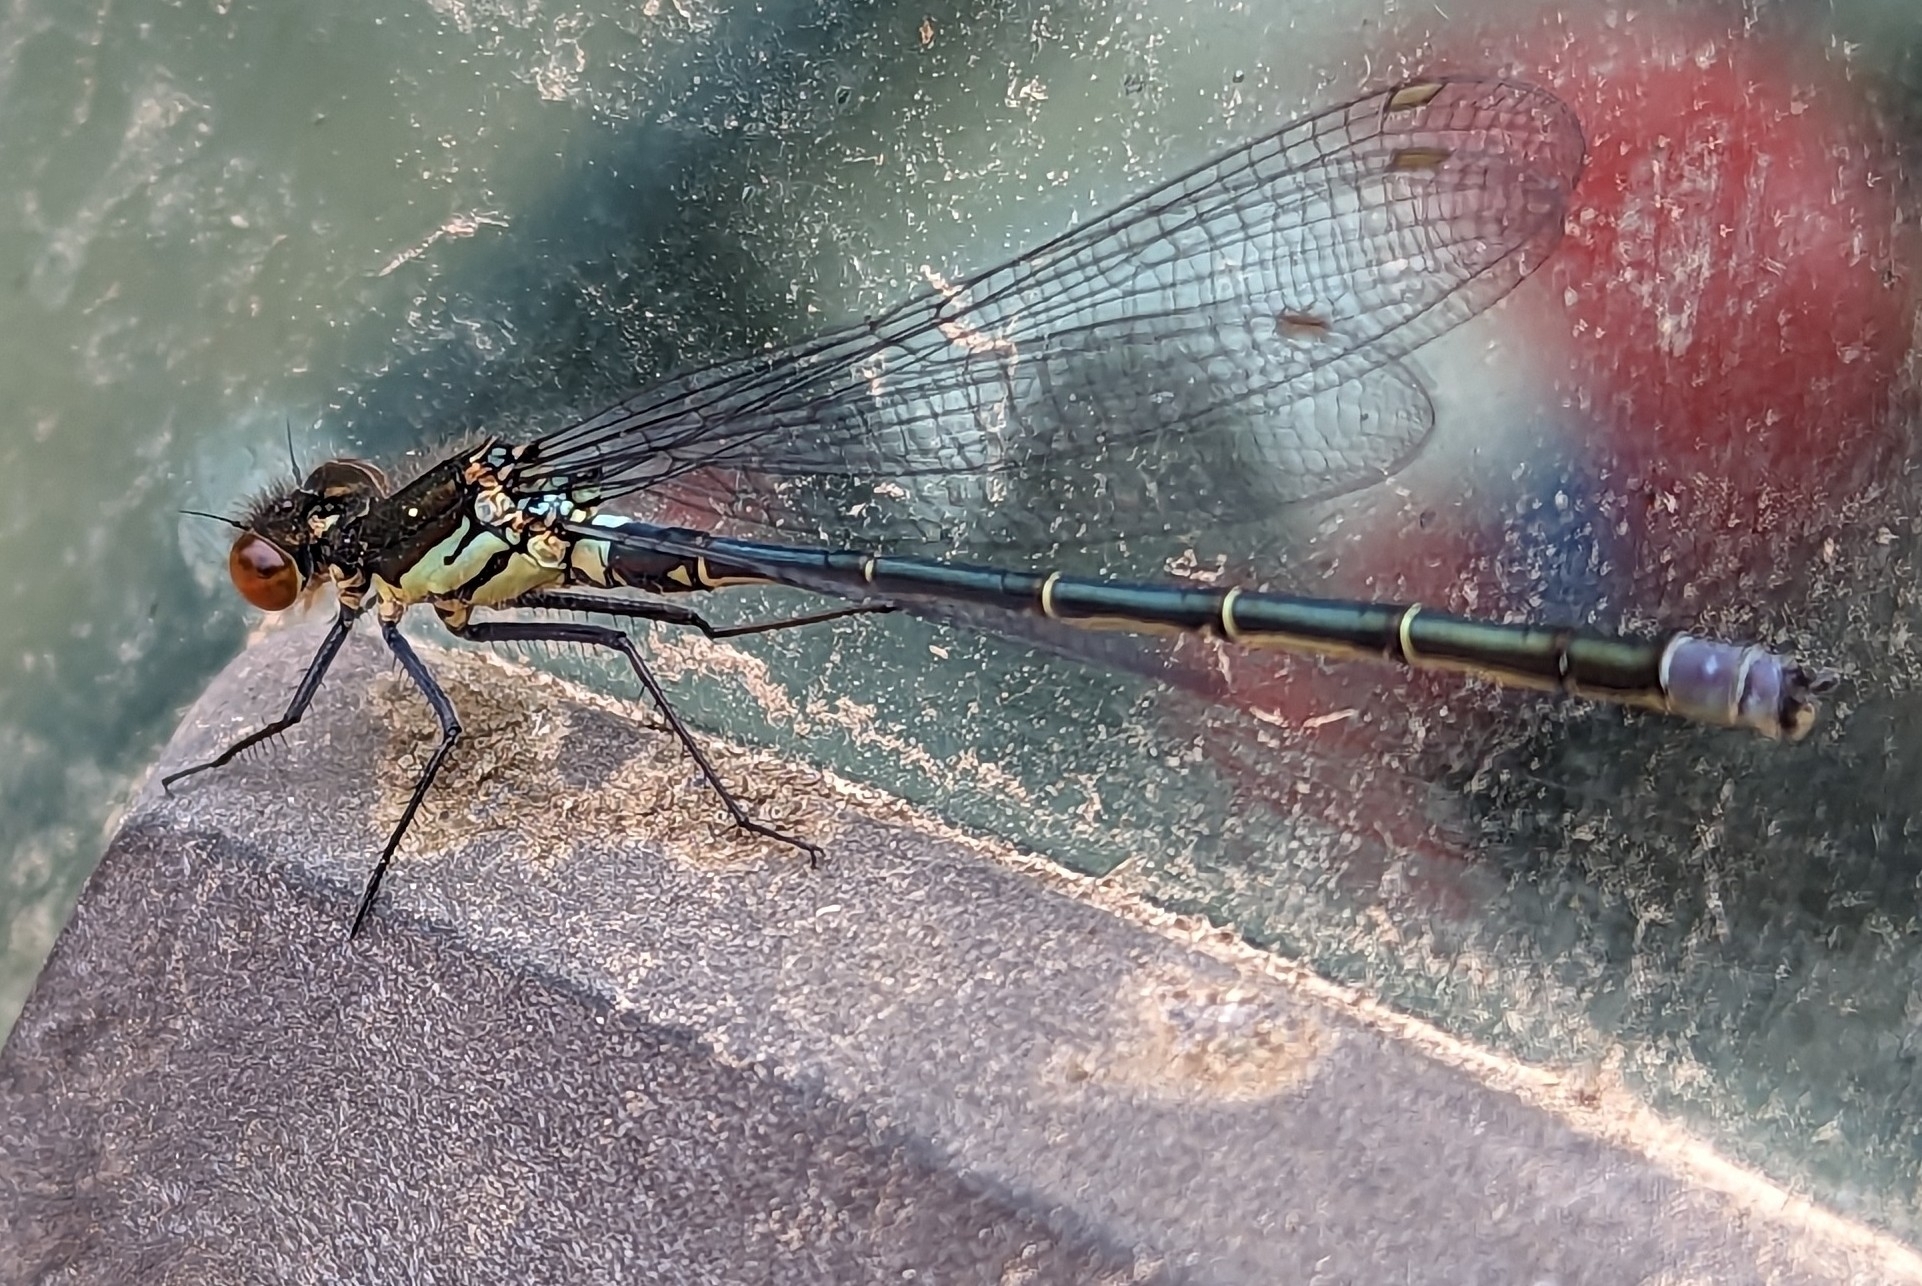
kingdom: Animalia
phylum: Arthropoda
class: Insecta
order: Odonata
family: Coenagrionidae
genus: Erythromma
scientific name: Erythromma najas
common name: Red-eyed damselfly
